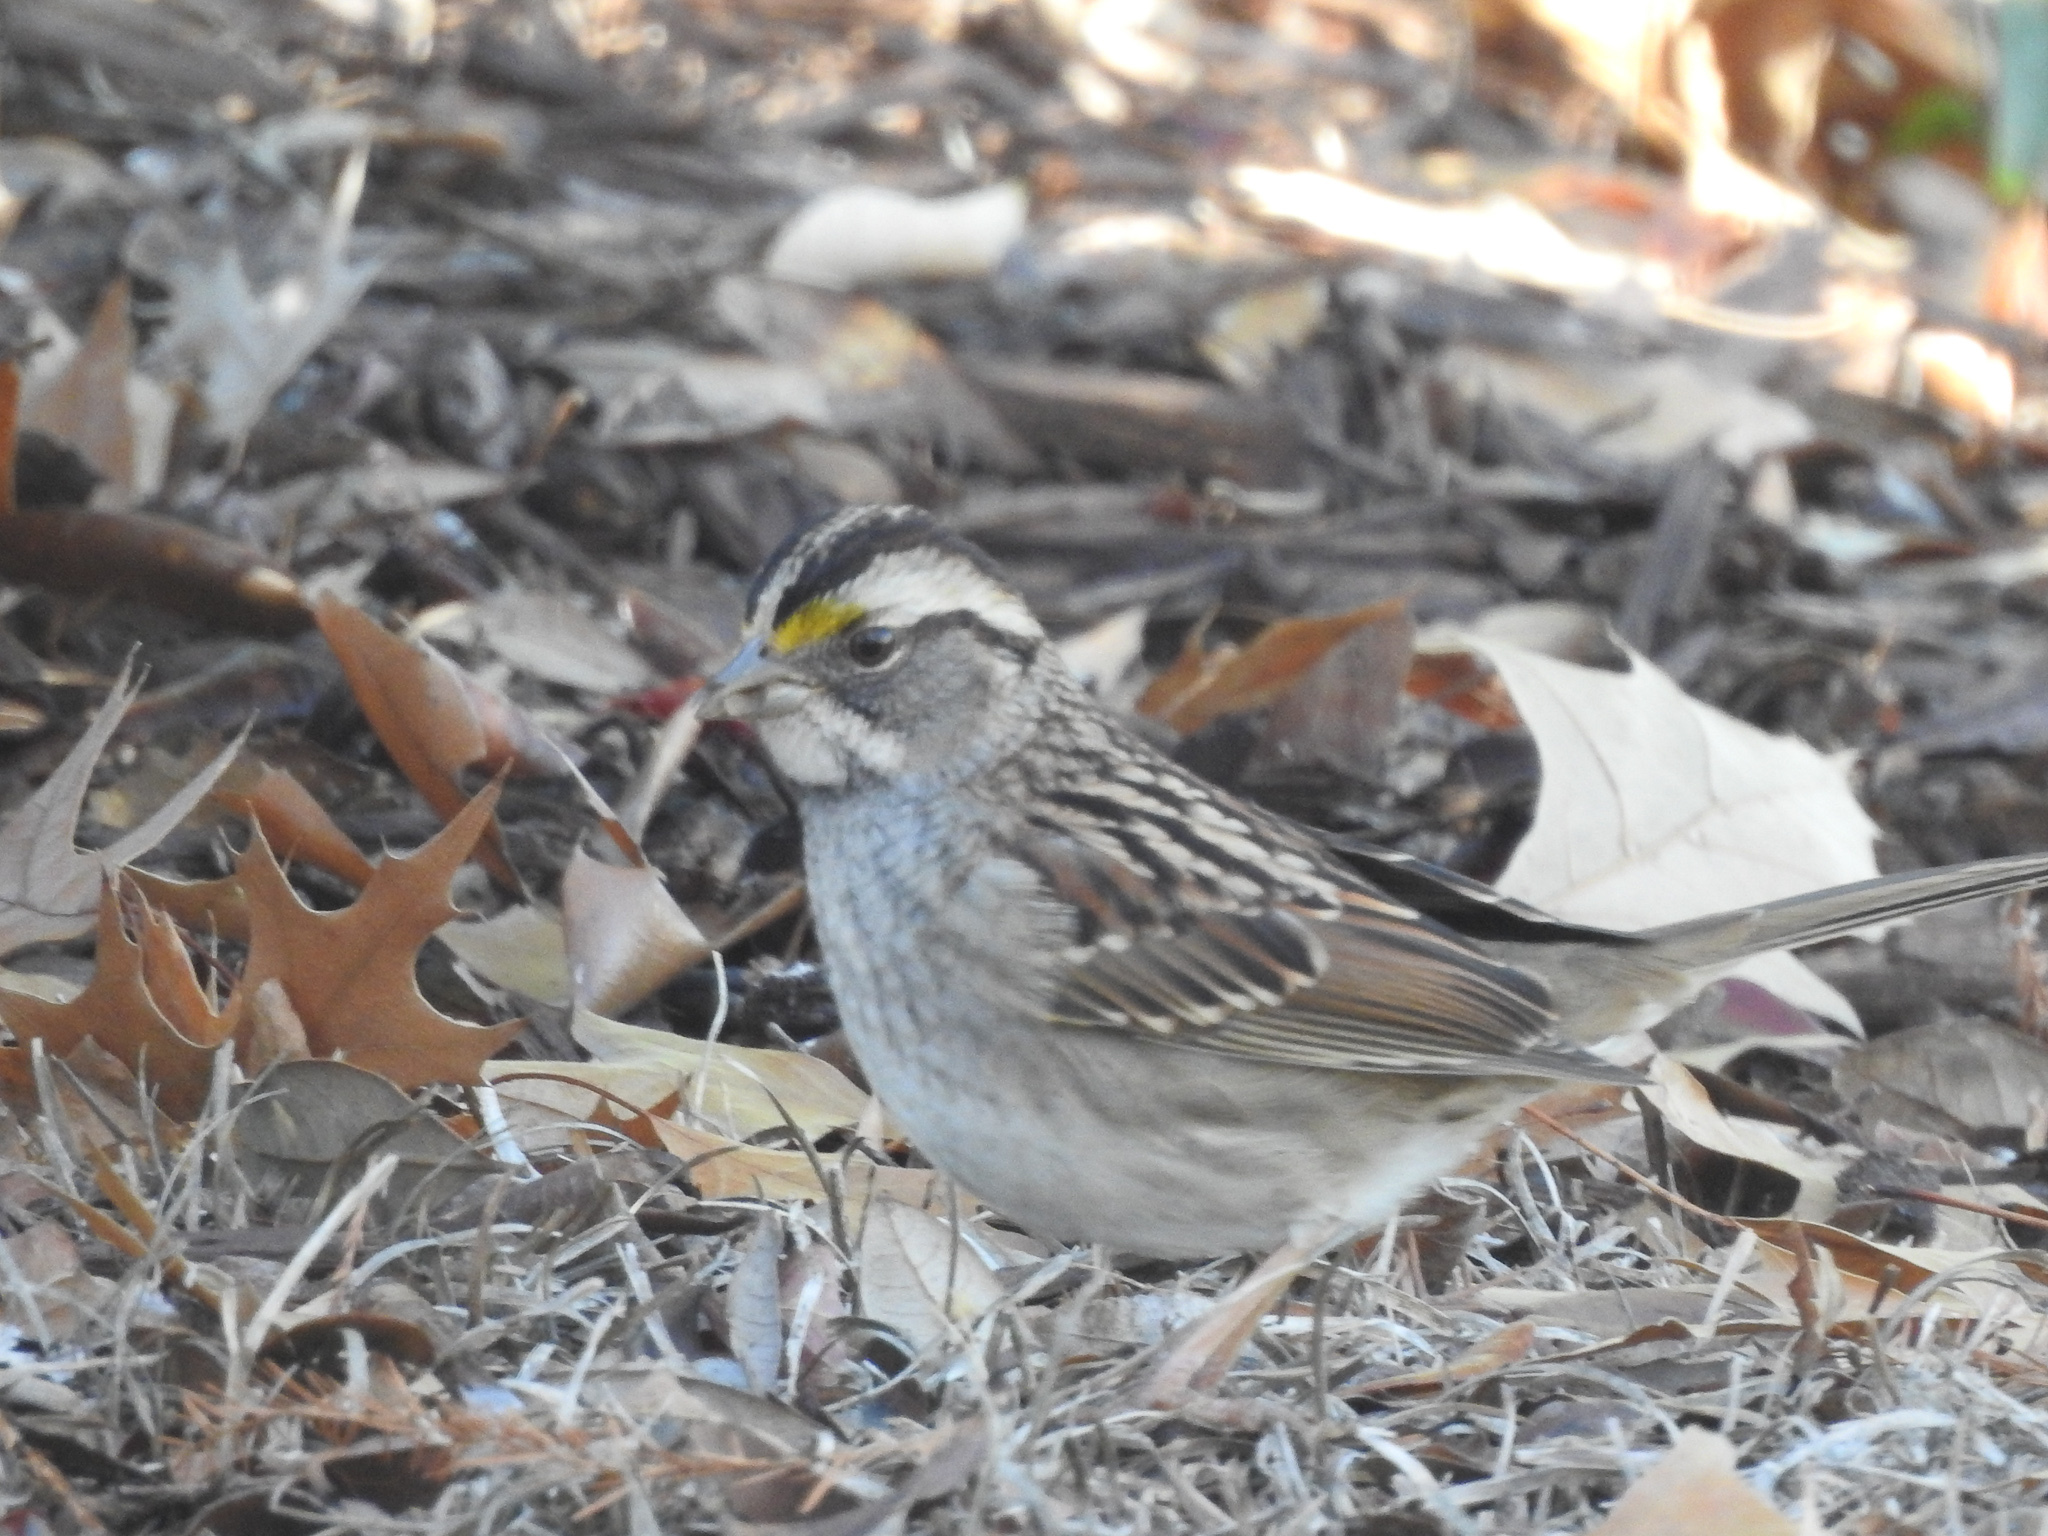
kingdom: Animalia
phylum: Chordata
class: Aves
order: Passeriformes
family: Passerellidae
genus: Zonotrichia
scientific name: Zonotrichia albicollis
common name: White-throated sparrow
